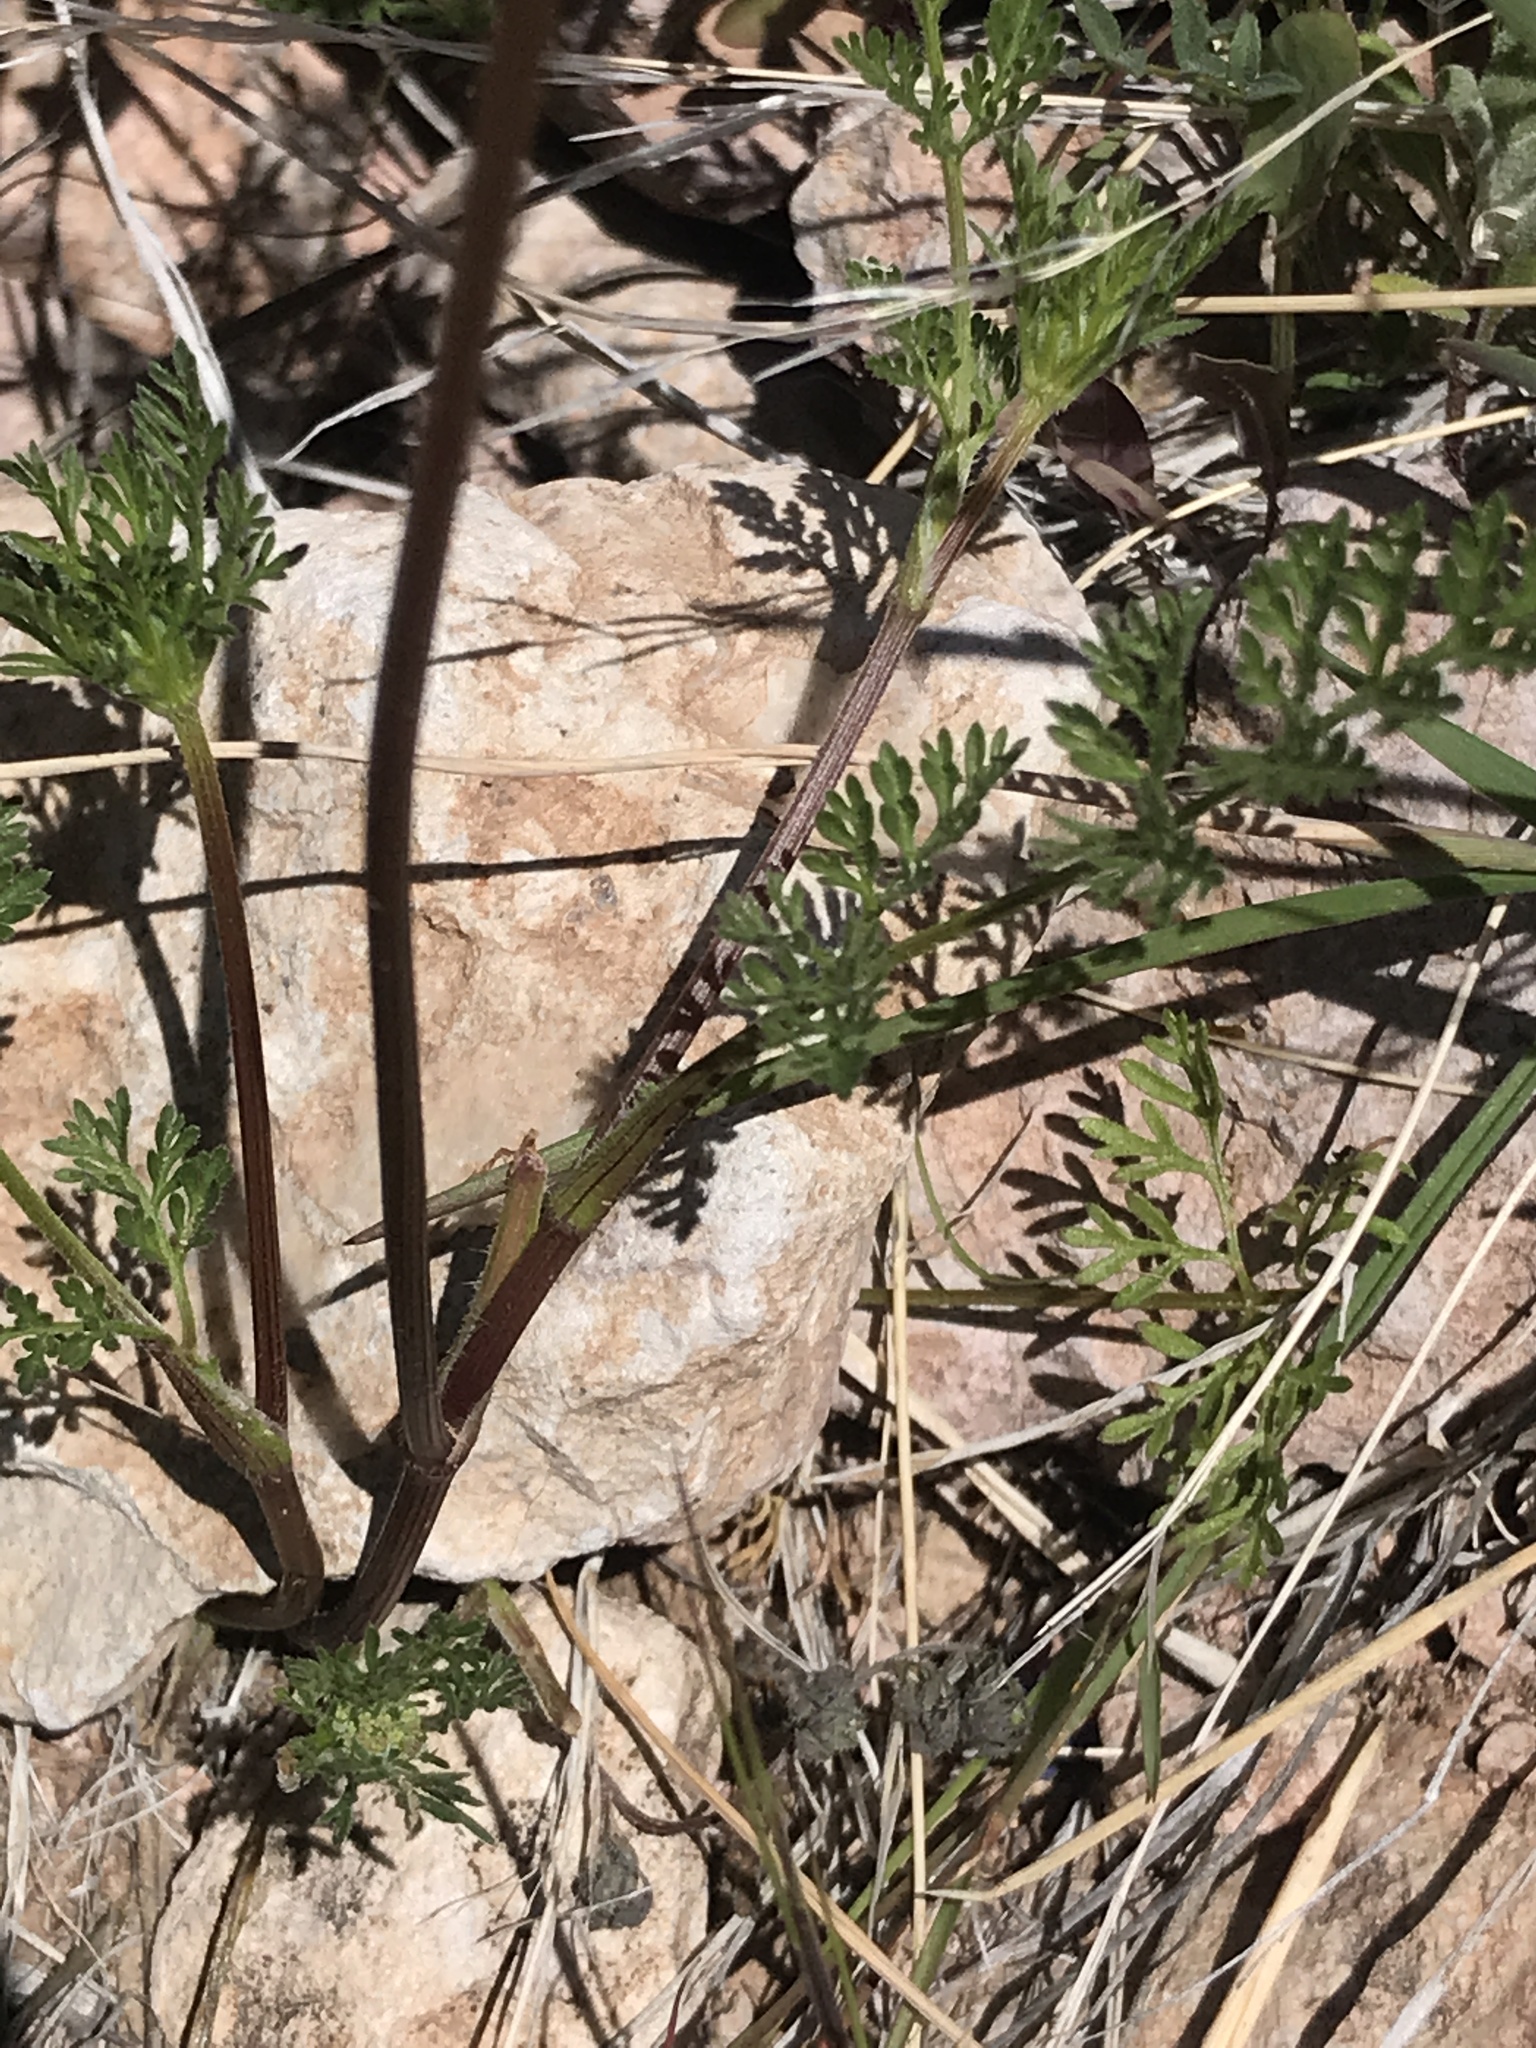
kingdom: Plantae
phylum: Tracheophyta
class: Magnoliopsida
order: Apiales
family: Apiaceae
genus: Daucus
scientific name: Daucus pusillus
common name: Southwest wild carrot
